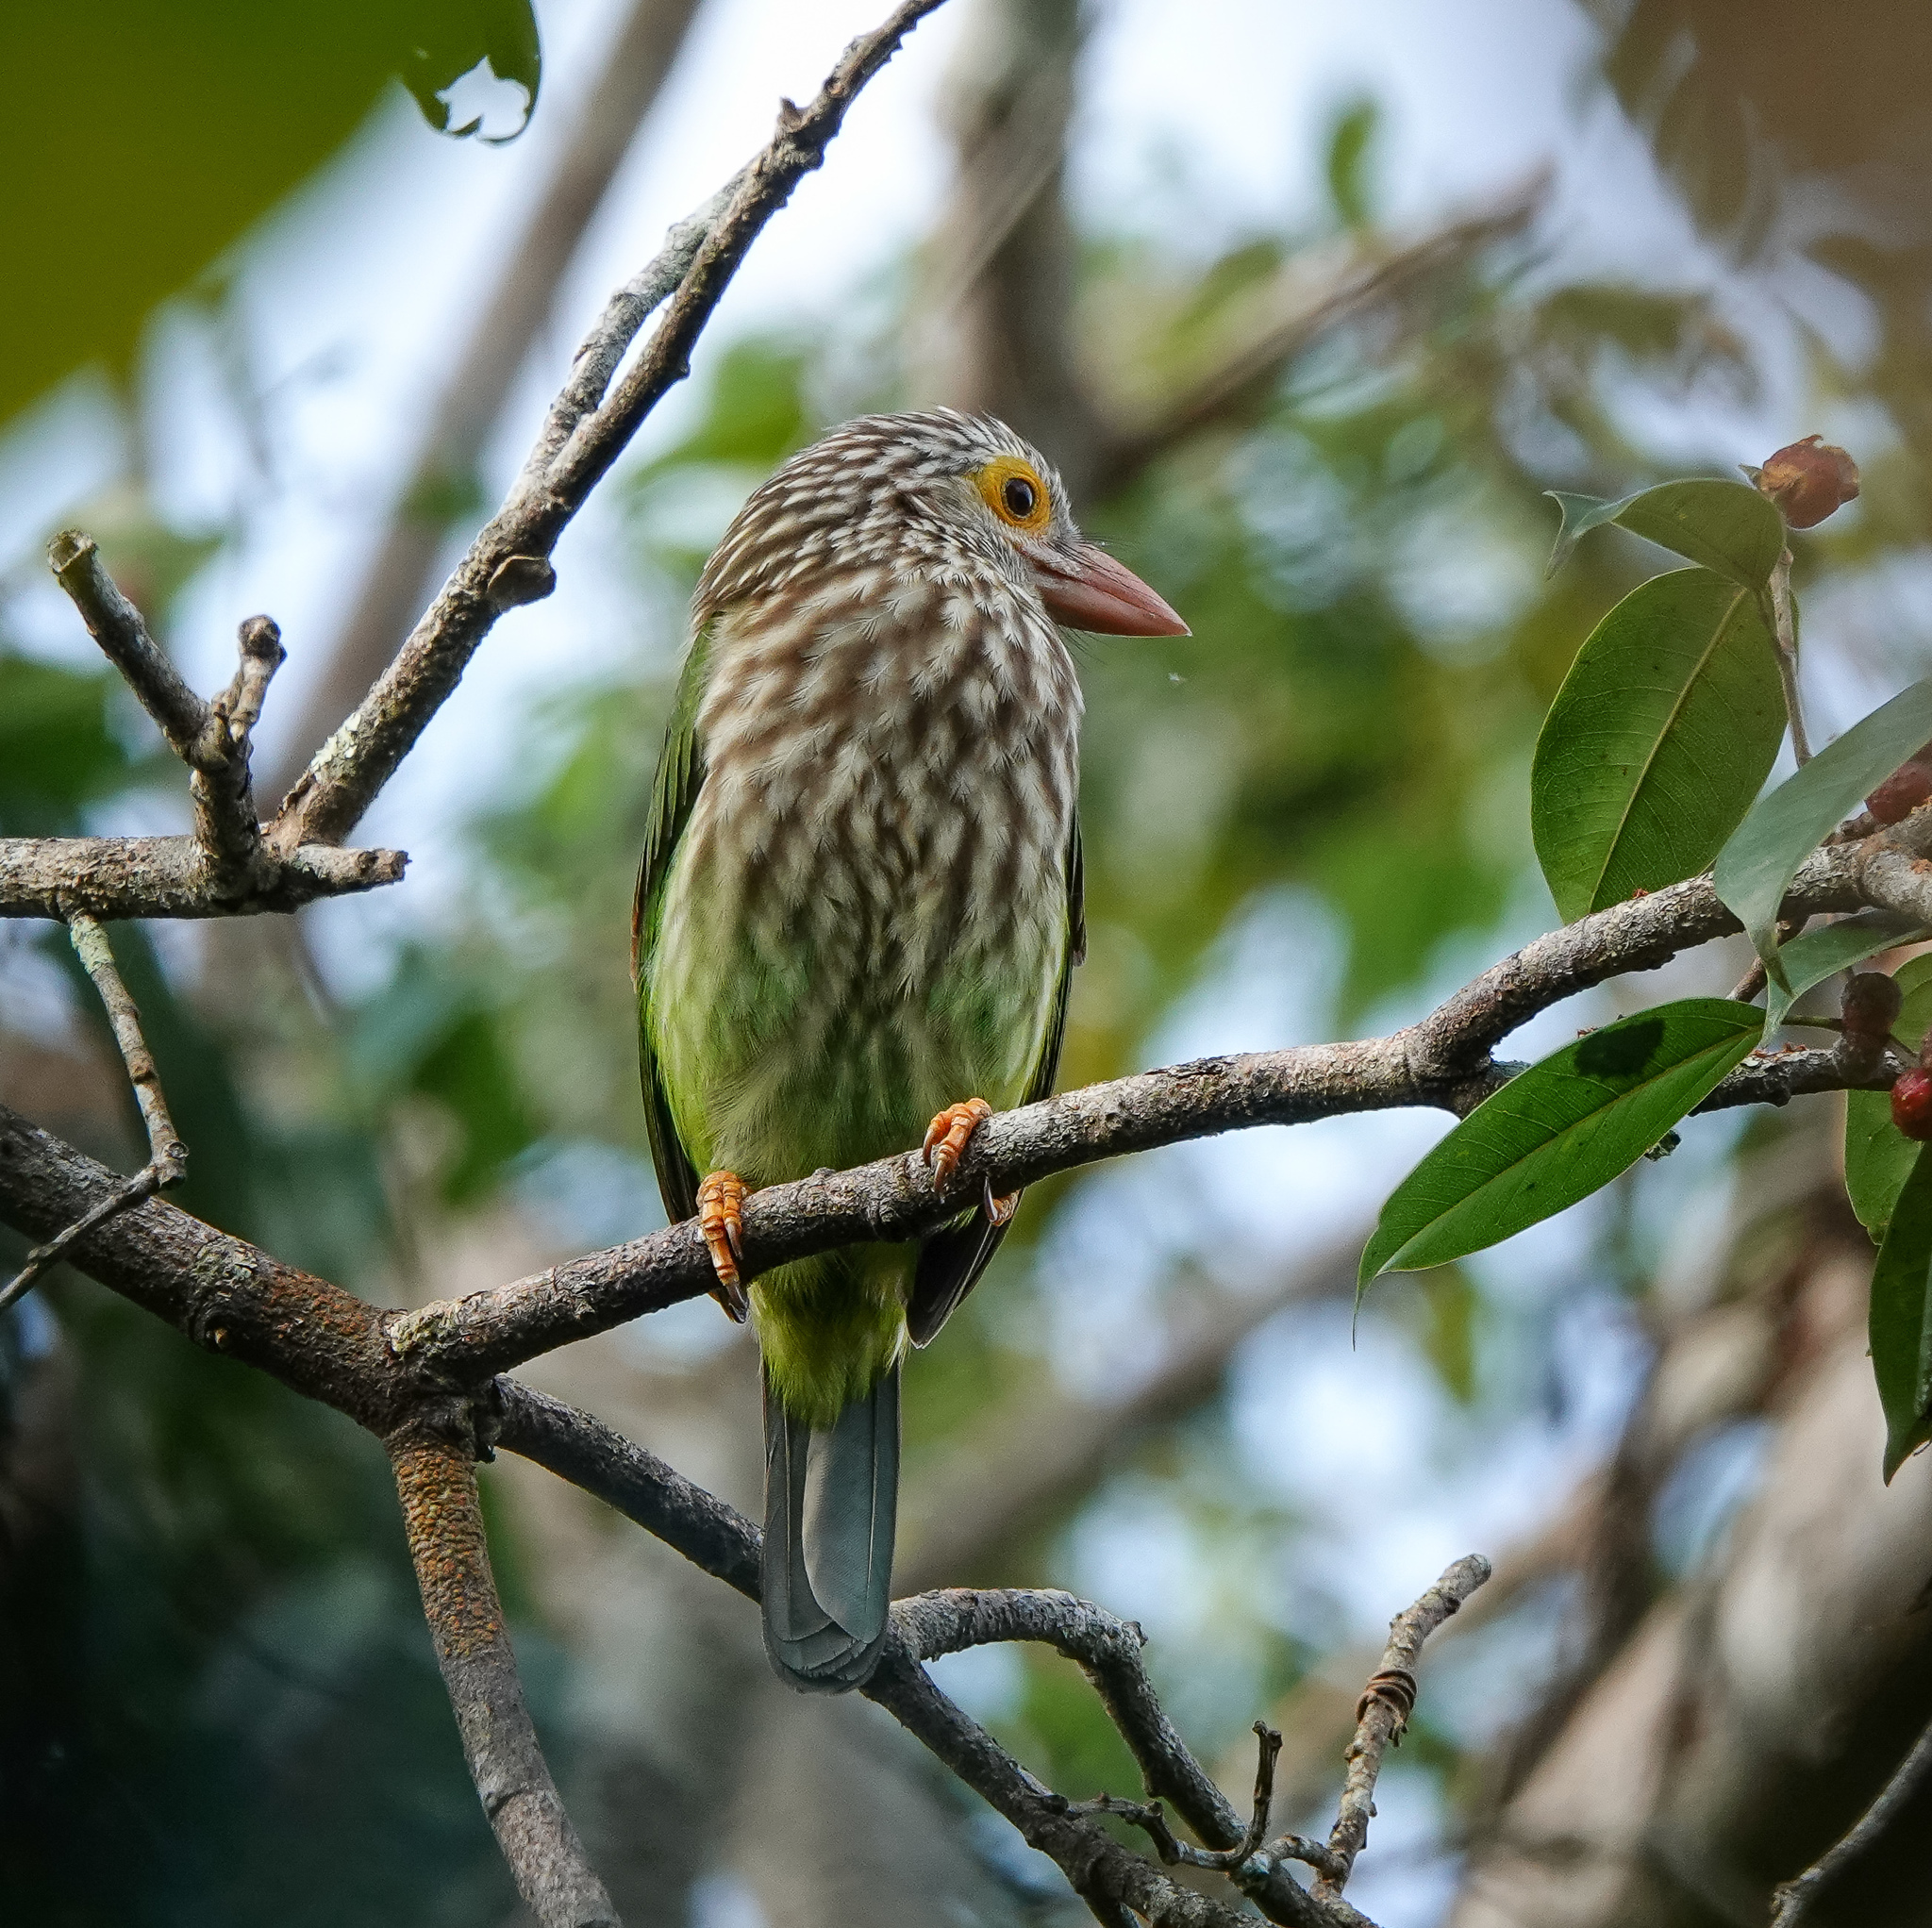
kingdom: Animalia
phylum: Chordata
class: Aves
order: Piciformes
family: Megalaimidae
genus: Psilopogon
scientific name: Psilopogon lineatus
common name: Lineated barbet
